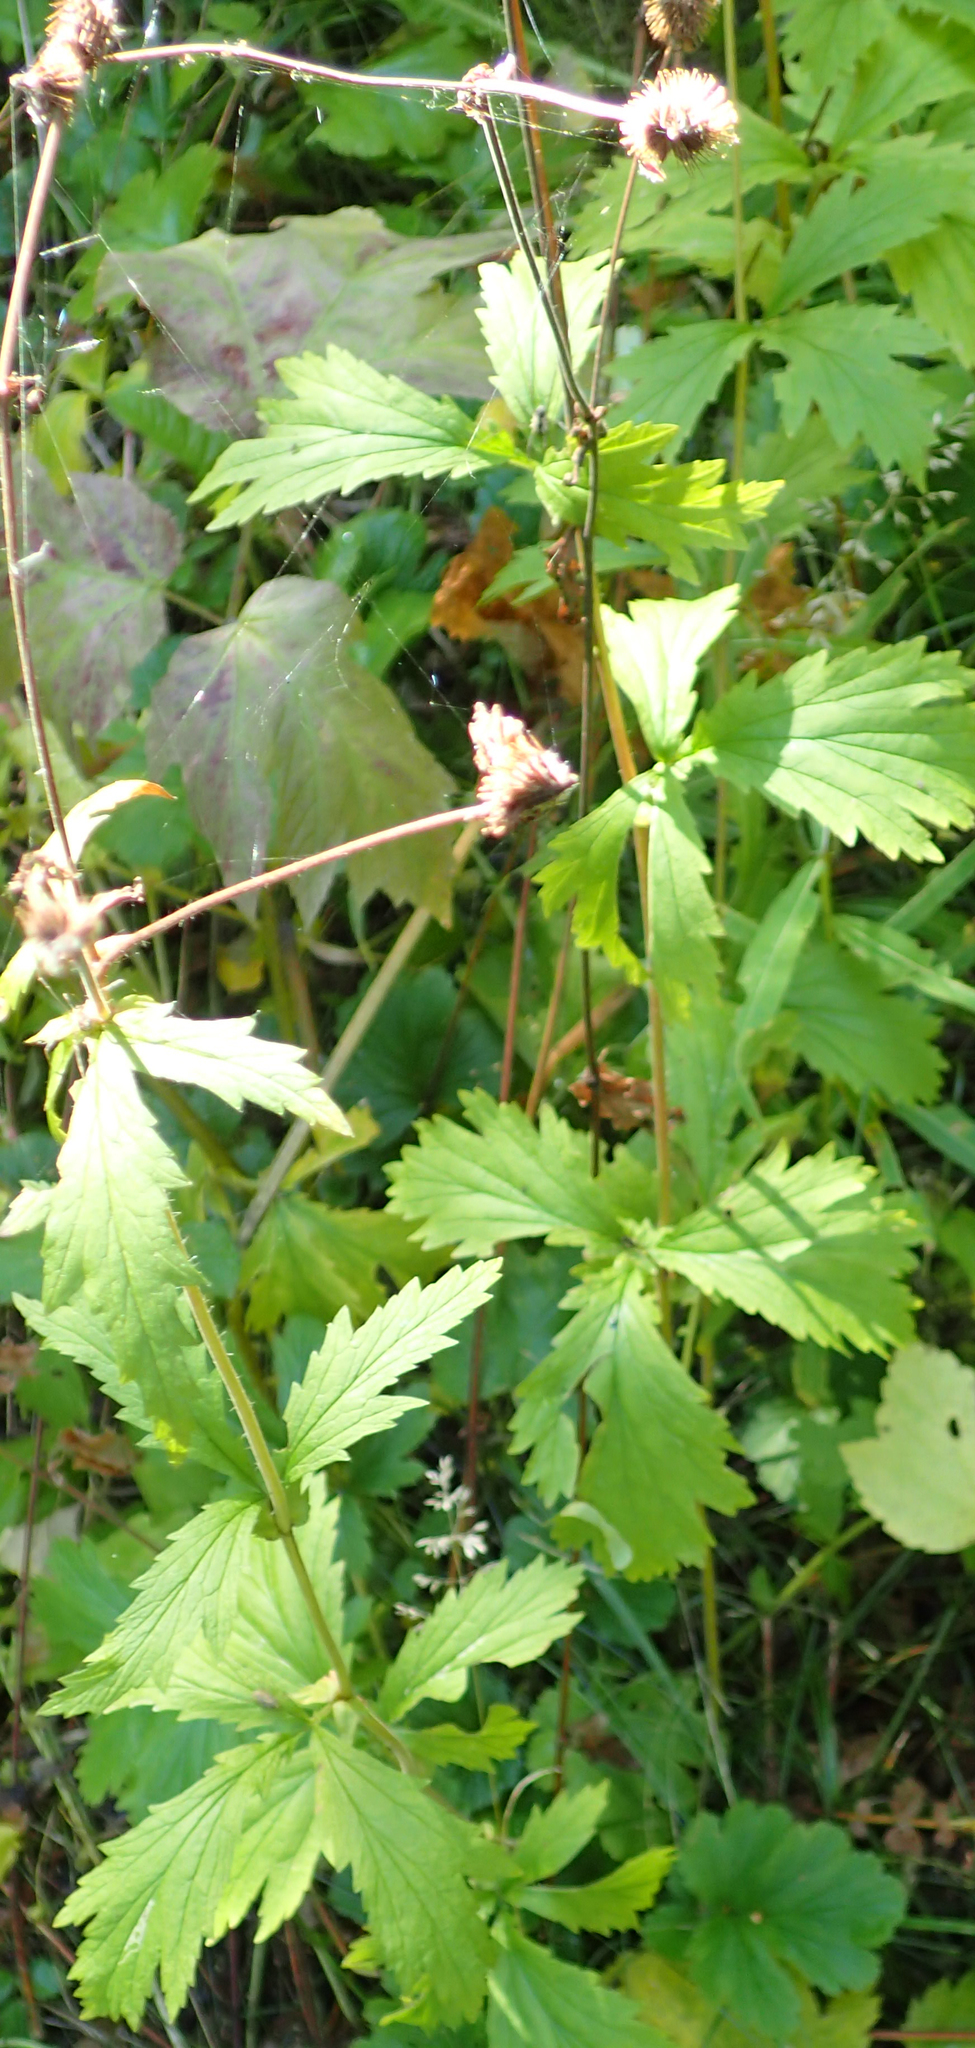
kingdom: Plantae
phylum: Tracheophyta
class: Magnoliopsida
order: Rosales
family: Rosaceae
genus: Geum
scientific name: Geum macrophyllum
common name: Large-leaved avens
